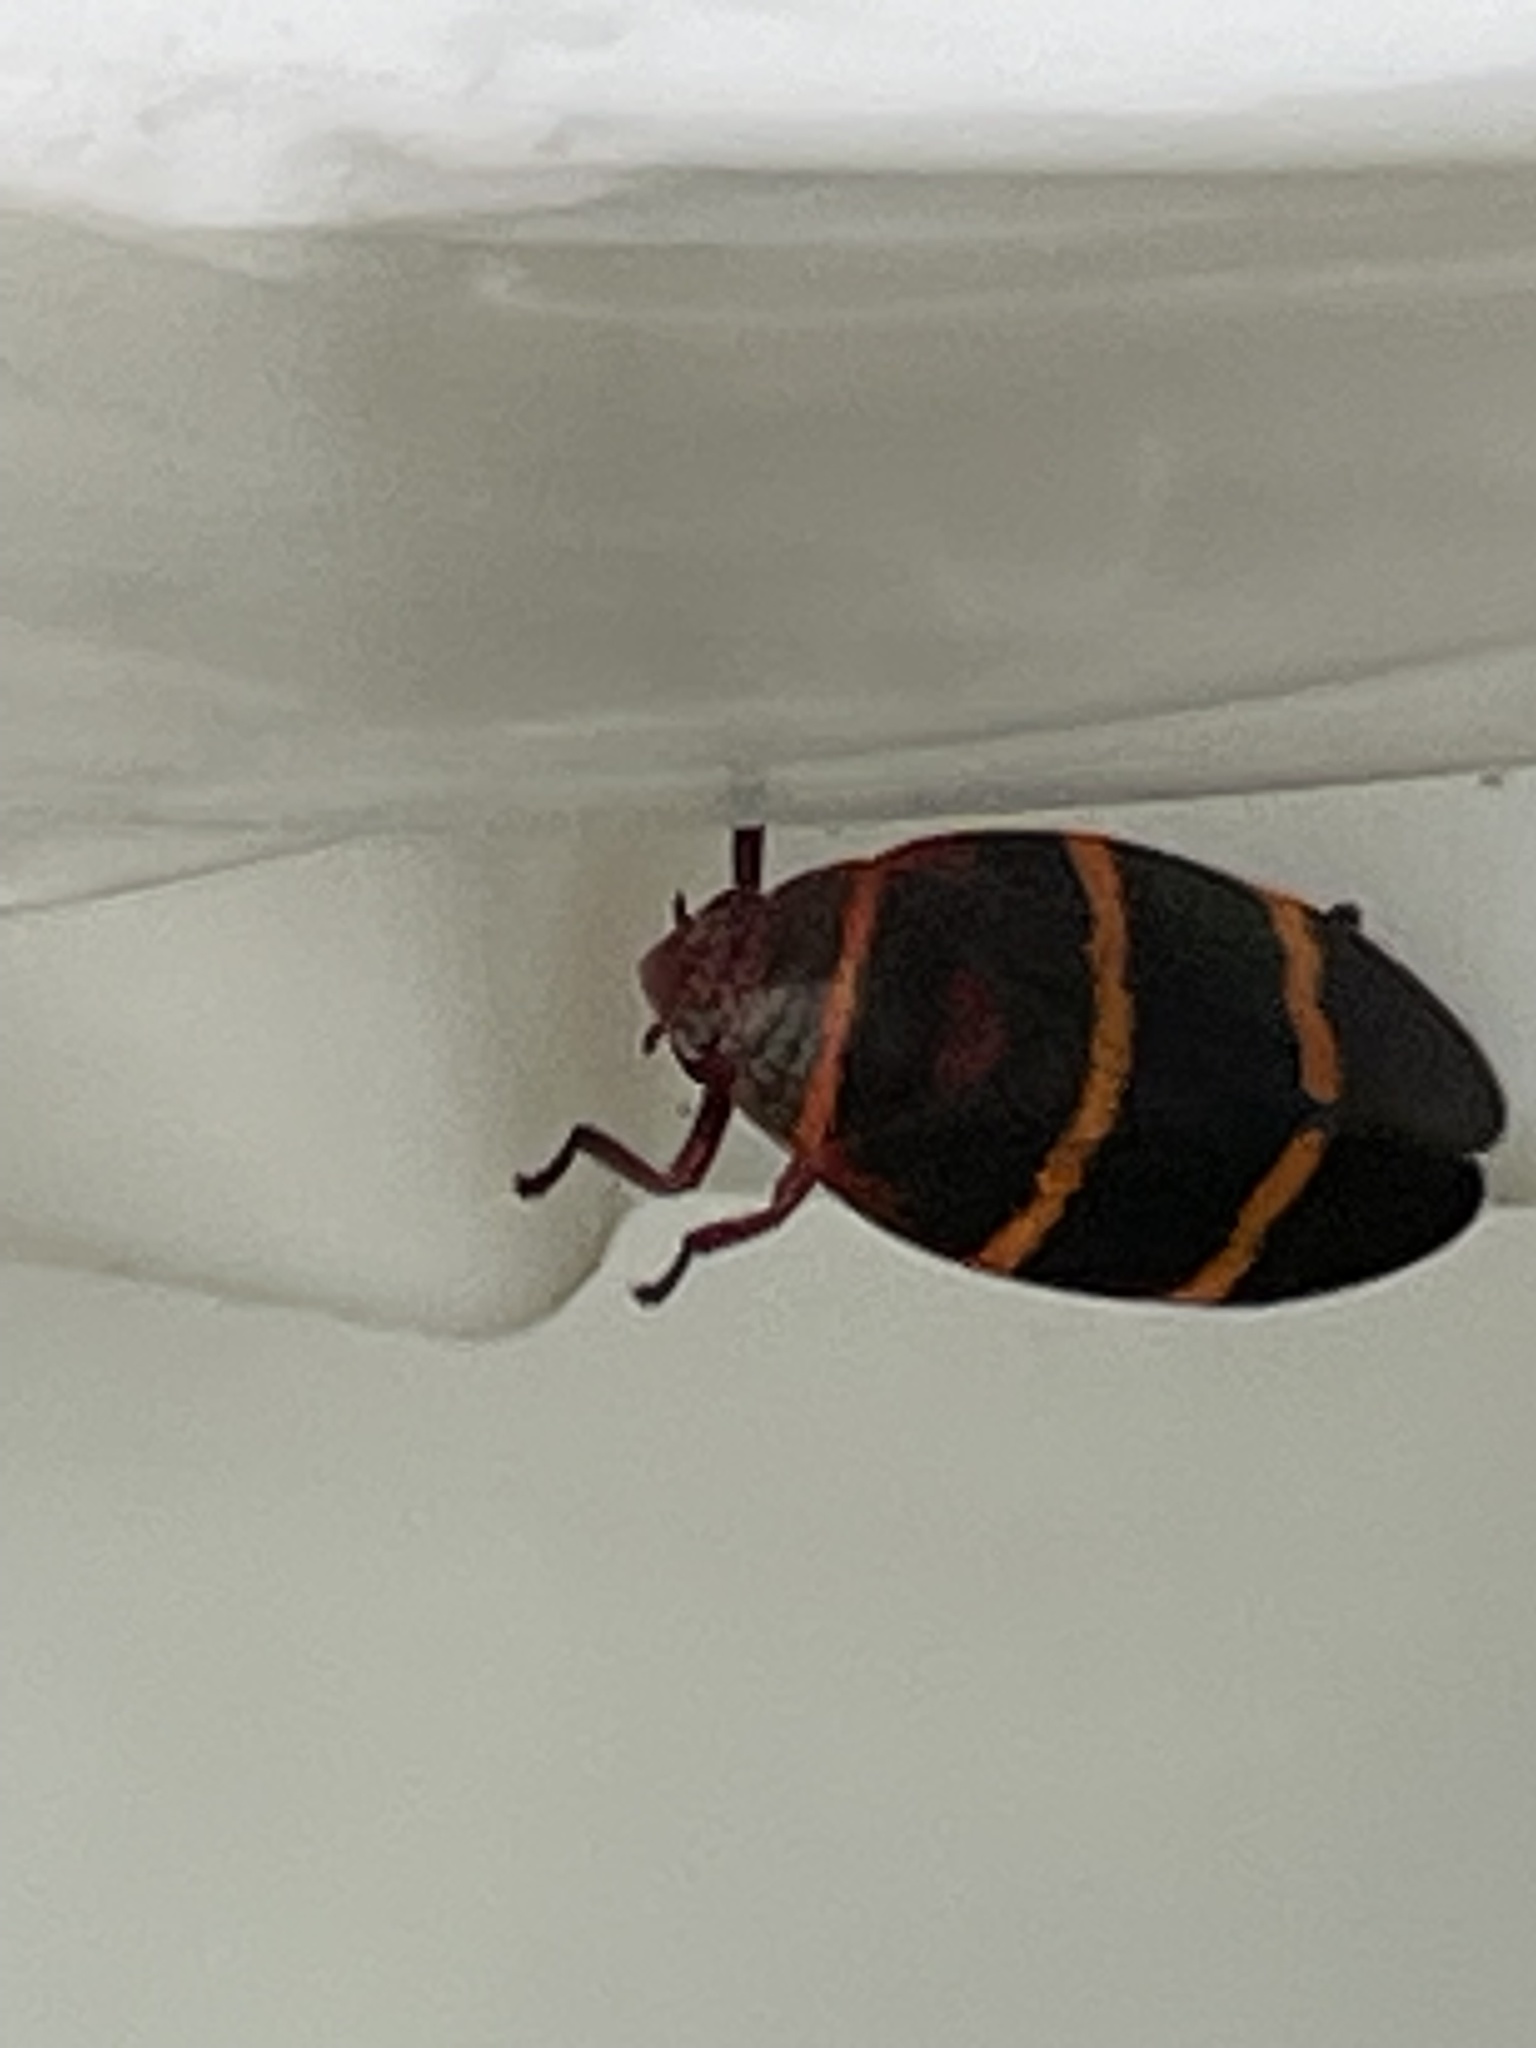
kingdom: Animalia
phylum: Arthropoda
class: Insecta
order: Hemiptera
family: Cercopidae
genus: Prosapia
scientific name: Prosapia bicincta
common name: Twolined spittlebug
